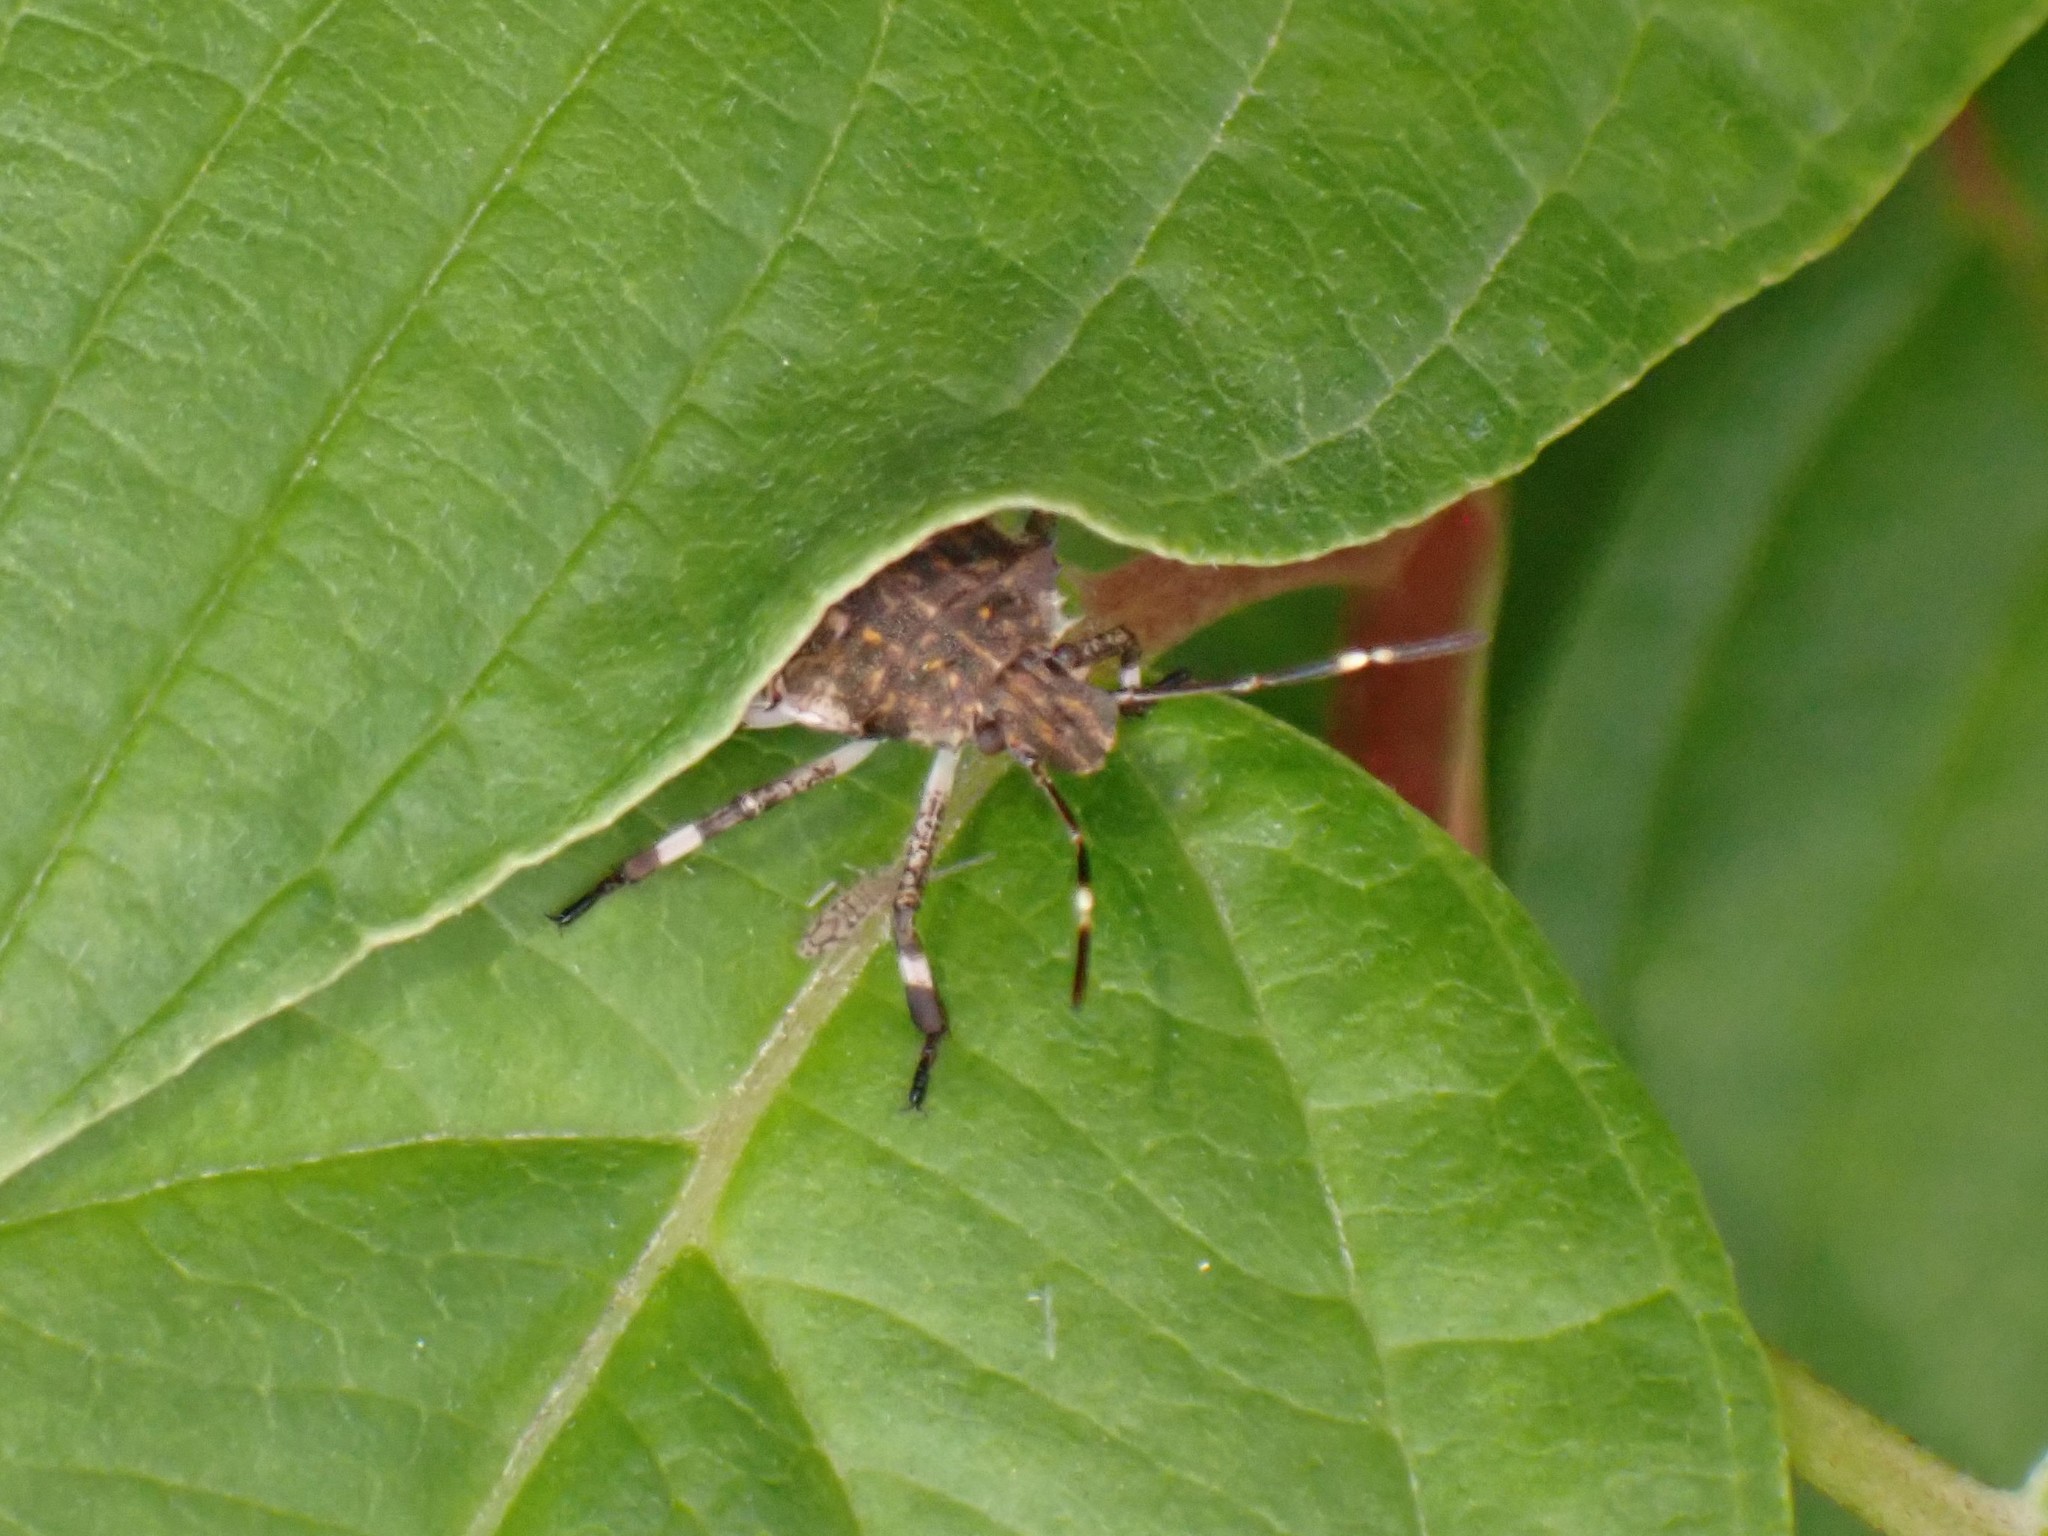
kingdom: Animalia
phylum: Arthropoda
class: Insecta
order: Hemiptera
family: Pentatomidae
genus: Halyomorpha
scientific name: Halyomorpha halys
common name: Brown marmorated stink bug
